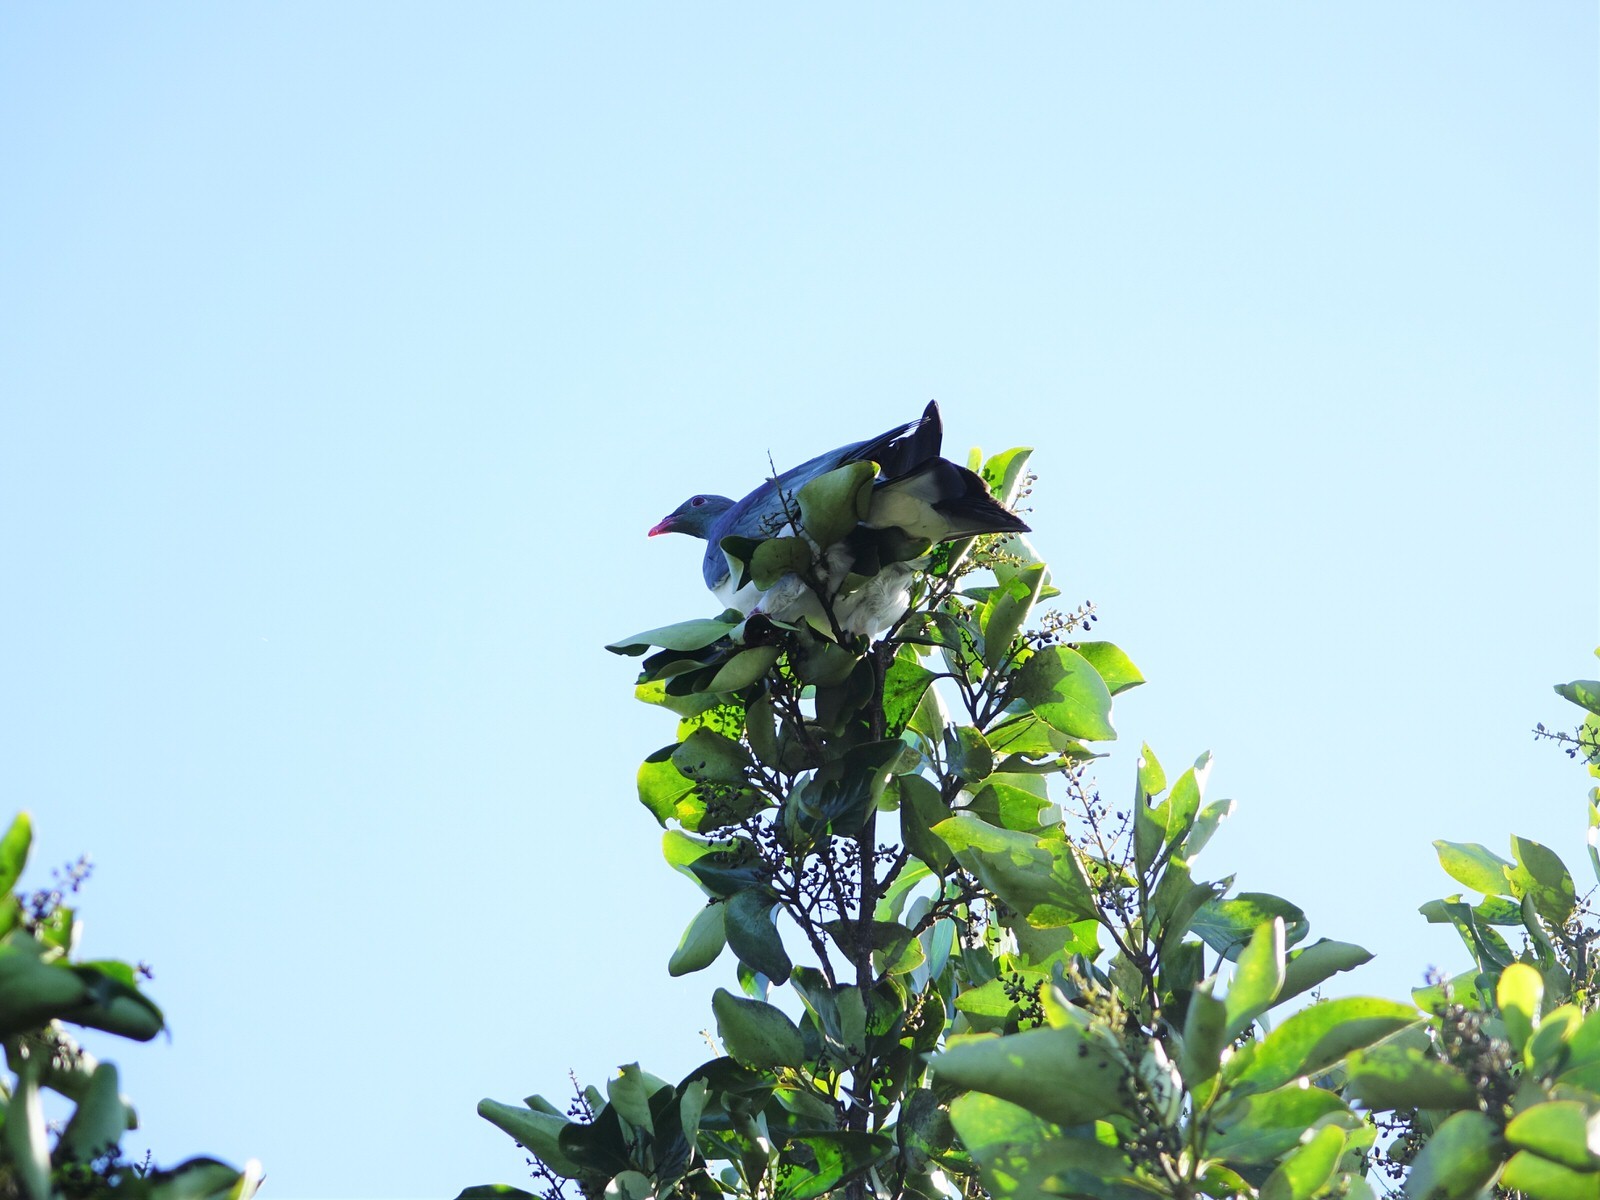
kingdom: Animalia
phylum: Chordata
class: Aves
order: Columbiformes
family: Columbidae
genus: Hemiphaga
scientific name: Hemiphaga novaeseelandiae
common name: New zealand pigeon
